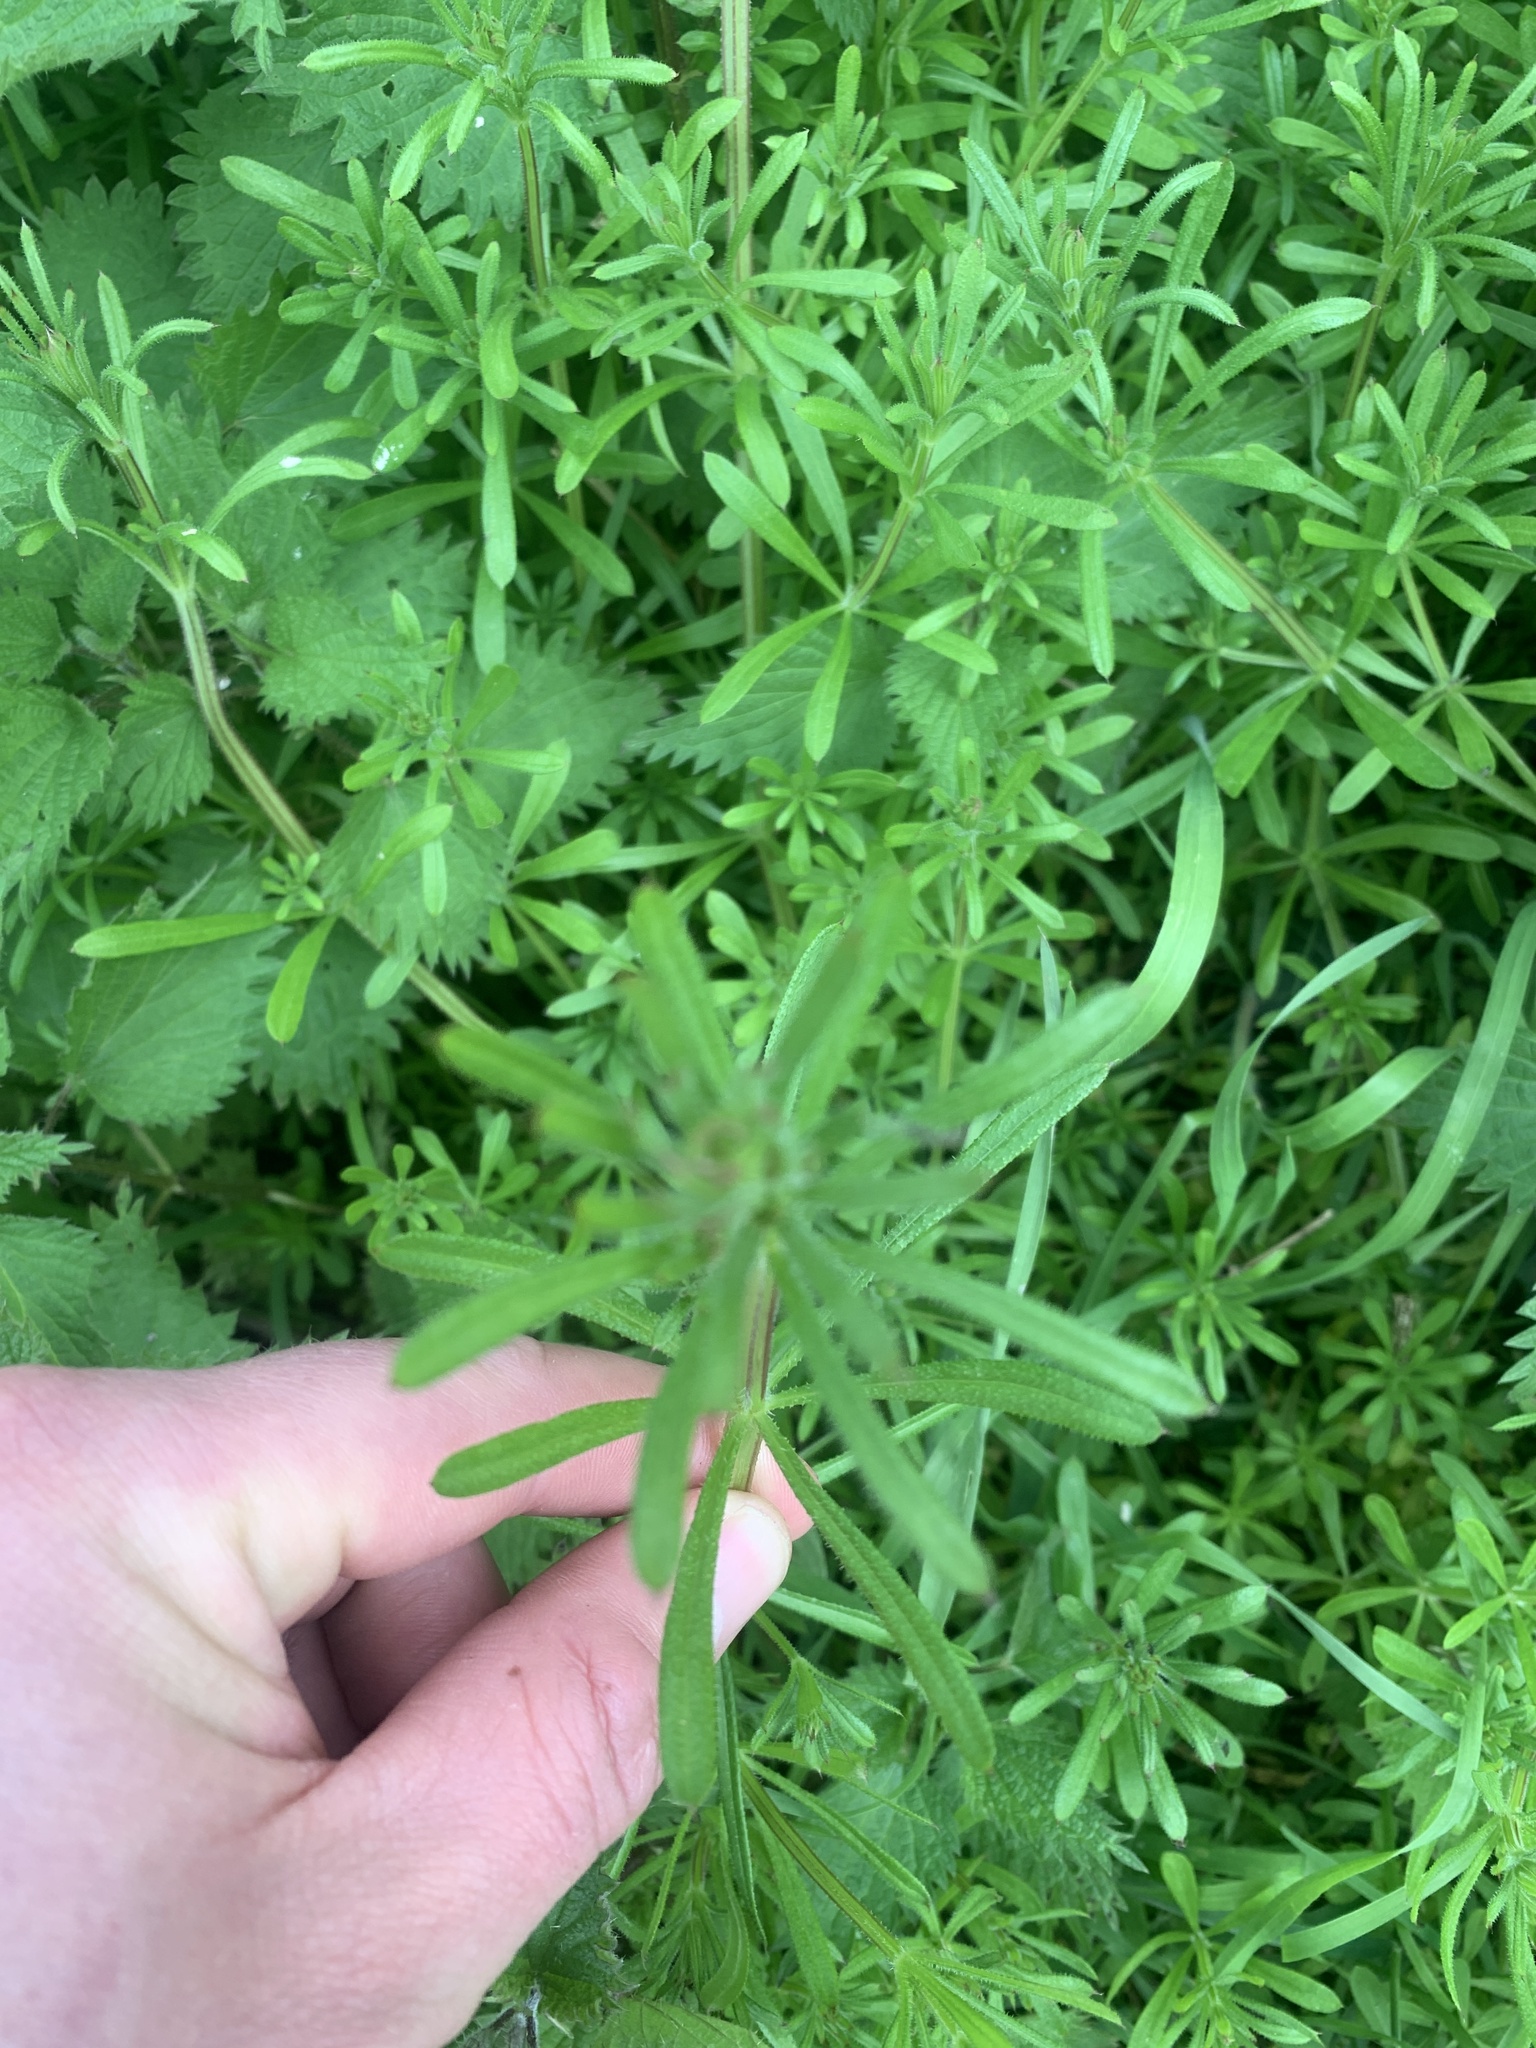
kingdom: Plantae
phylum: Tracheophyta
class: Magnoliopsida
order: Gentianales
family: Rubiaceae
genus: Galium
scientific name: Galium aparine
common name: Cleavers
